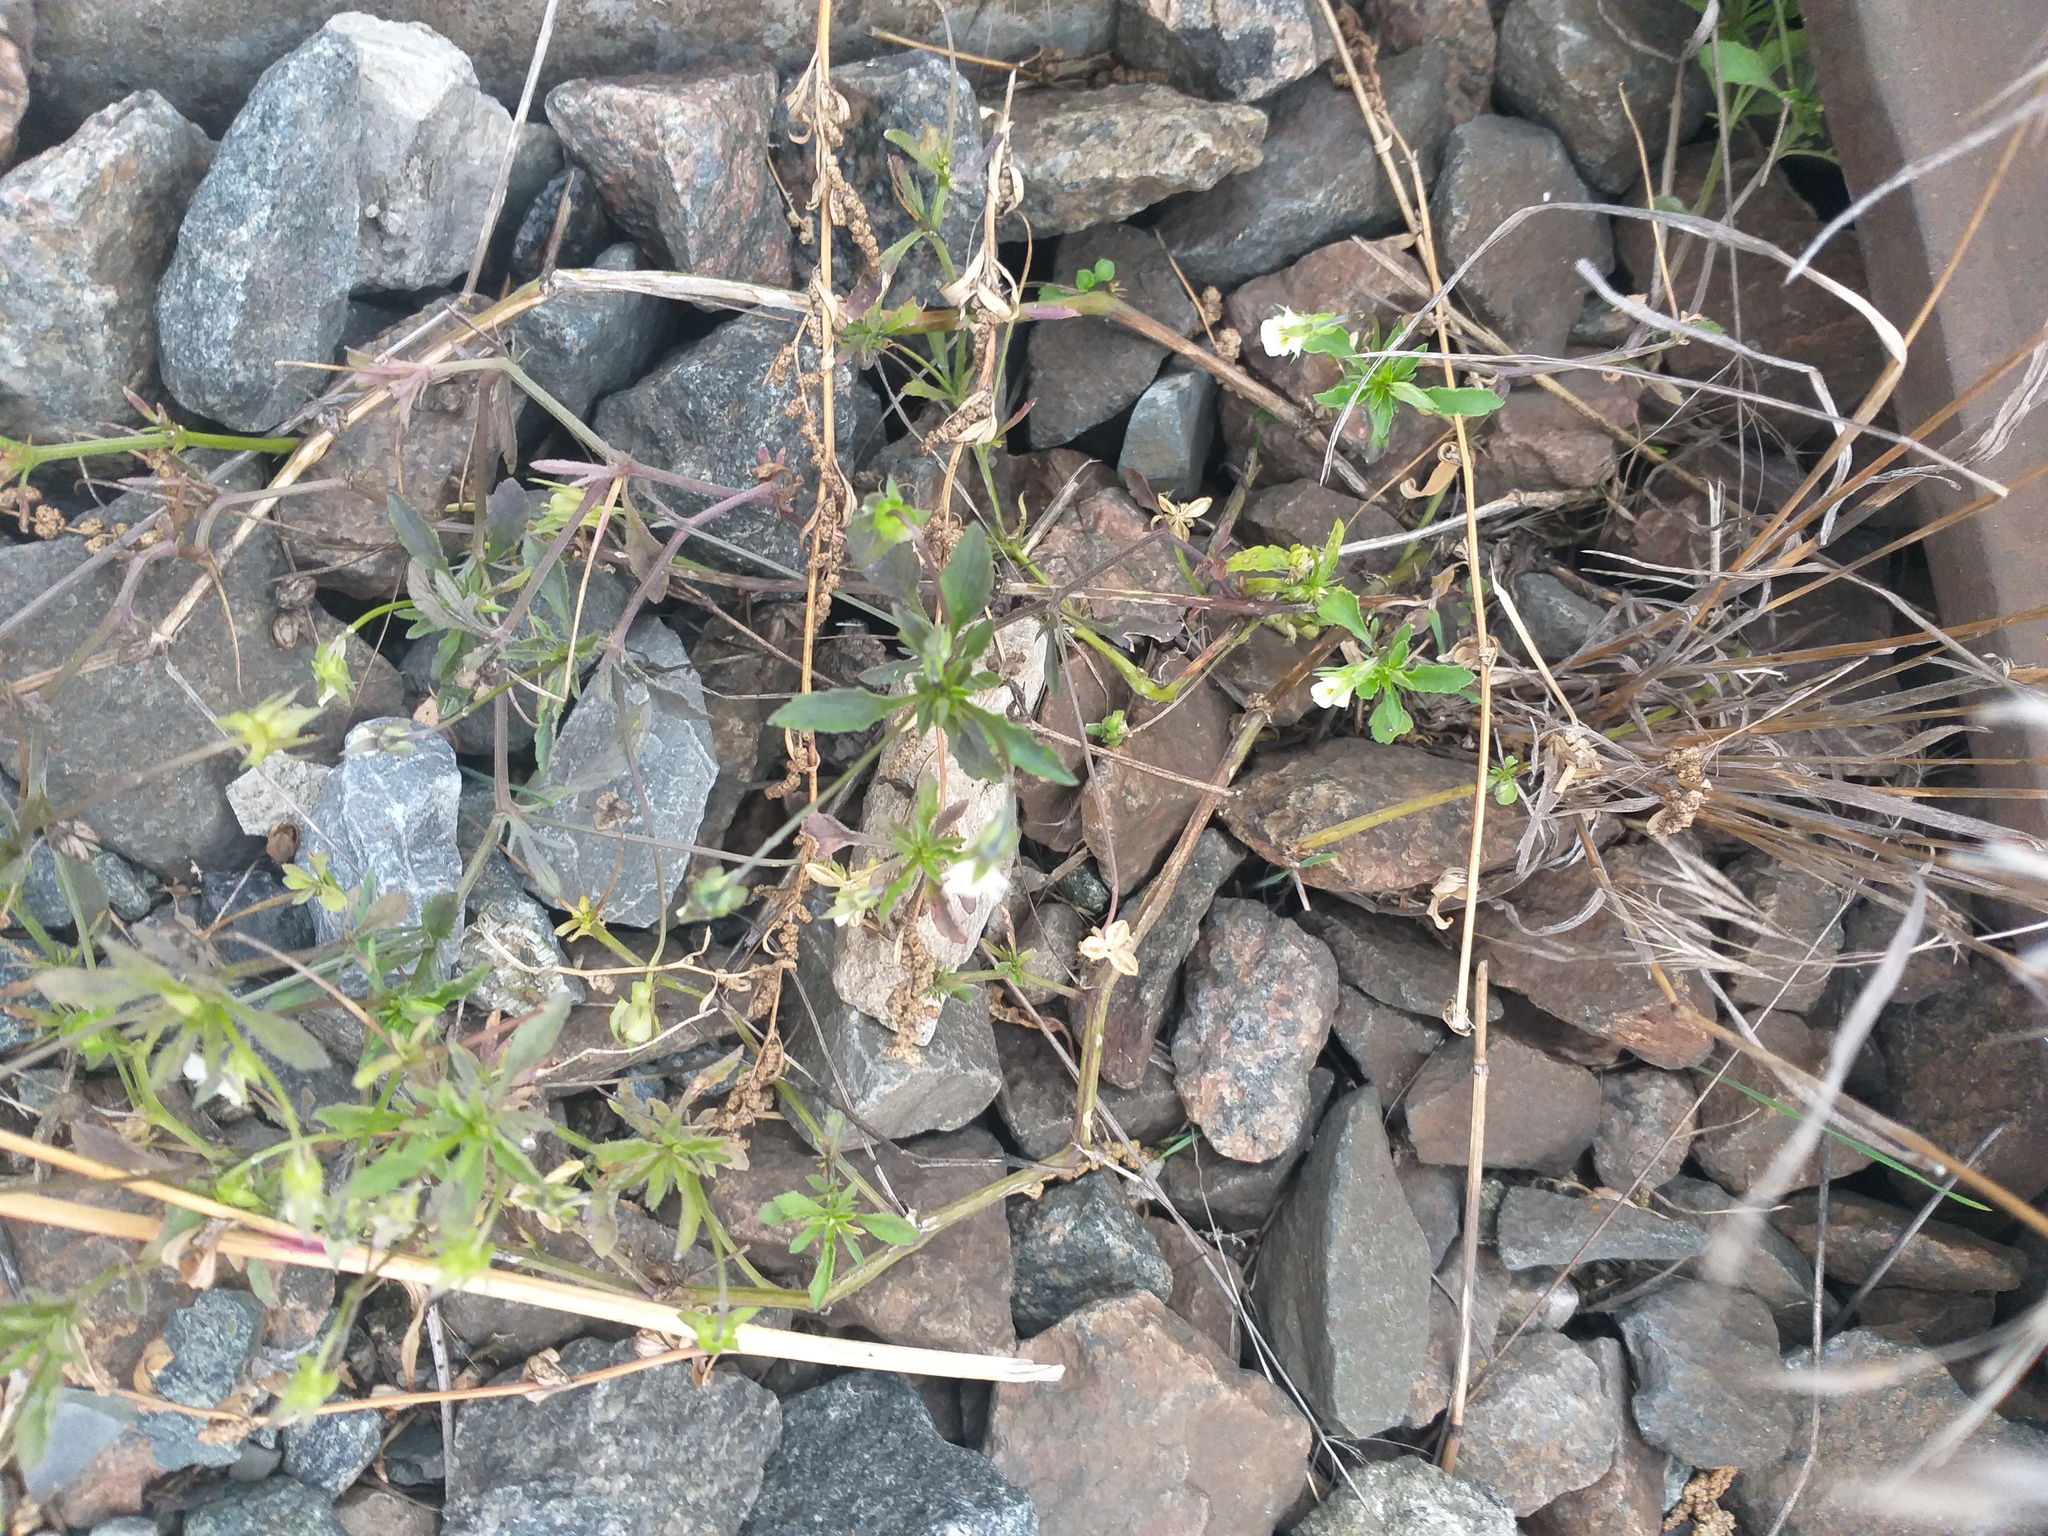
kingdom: Plantae
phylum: Tracheophyta
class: Magnoliopsida
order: Malpighiales
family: Violaceae
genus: Viola
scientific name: Viola arvensis
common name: Field pansy
